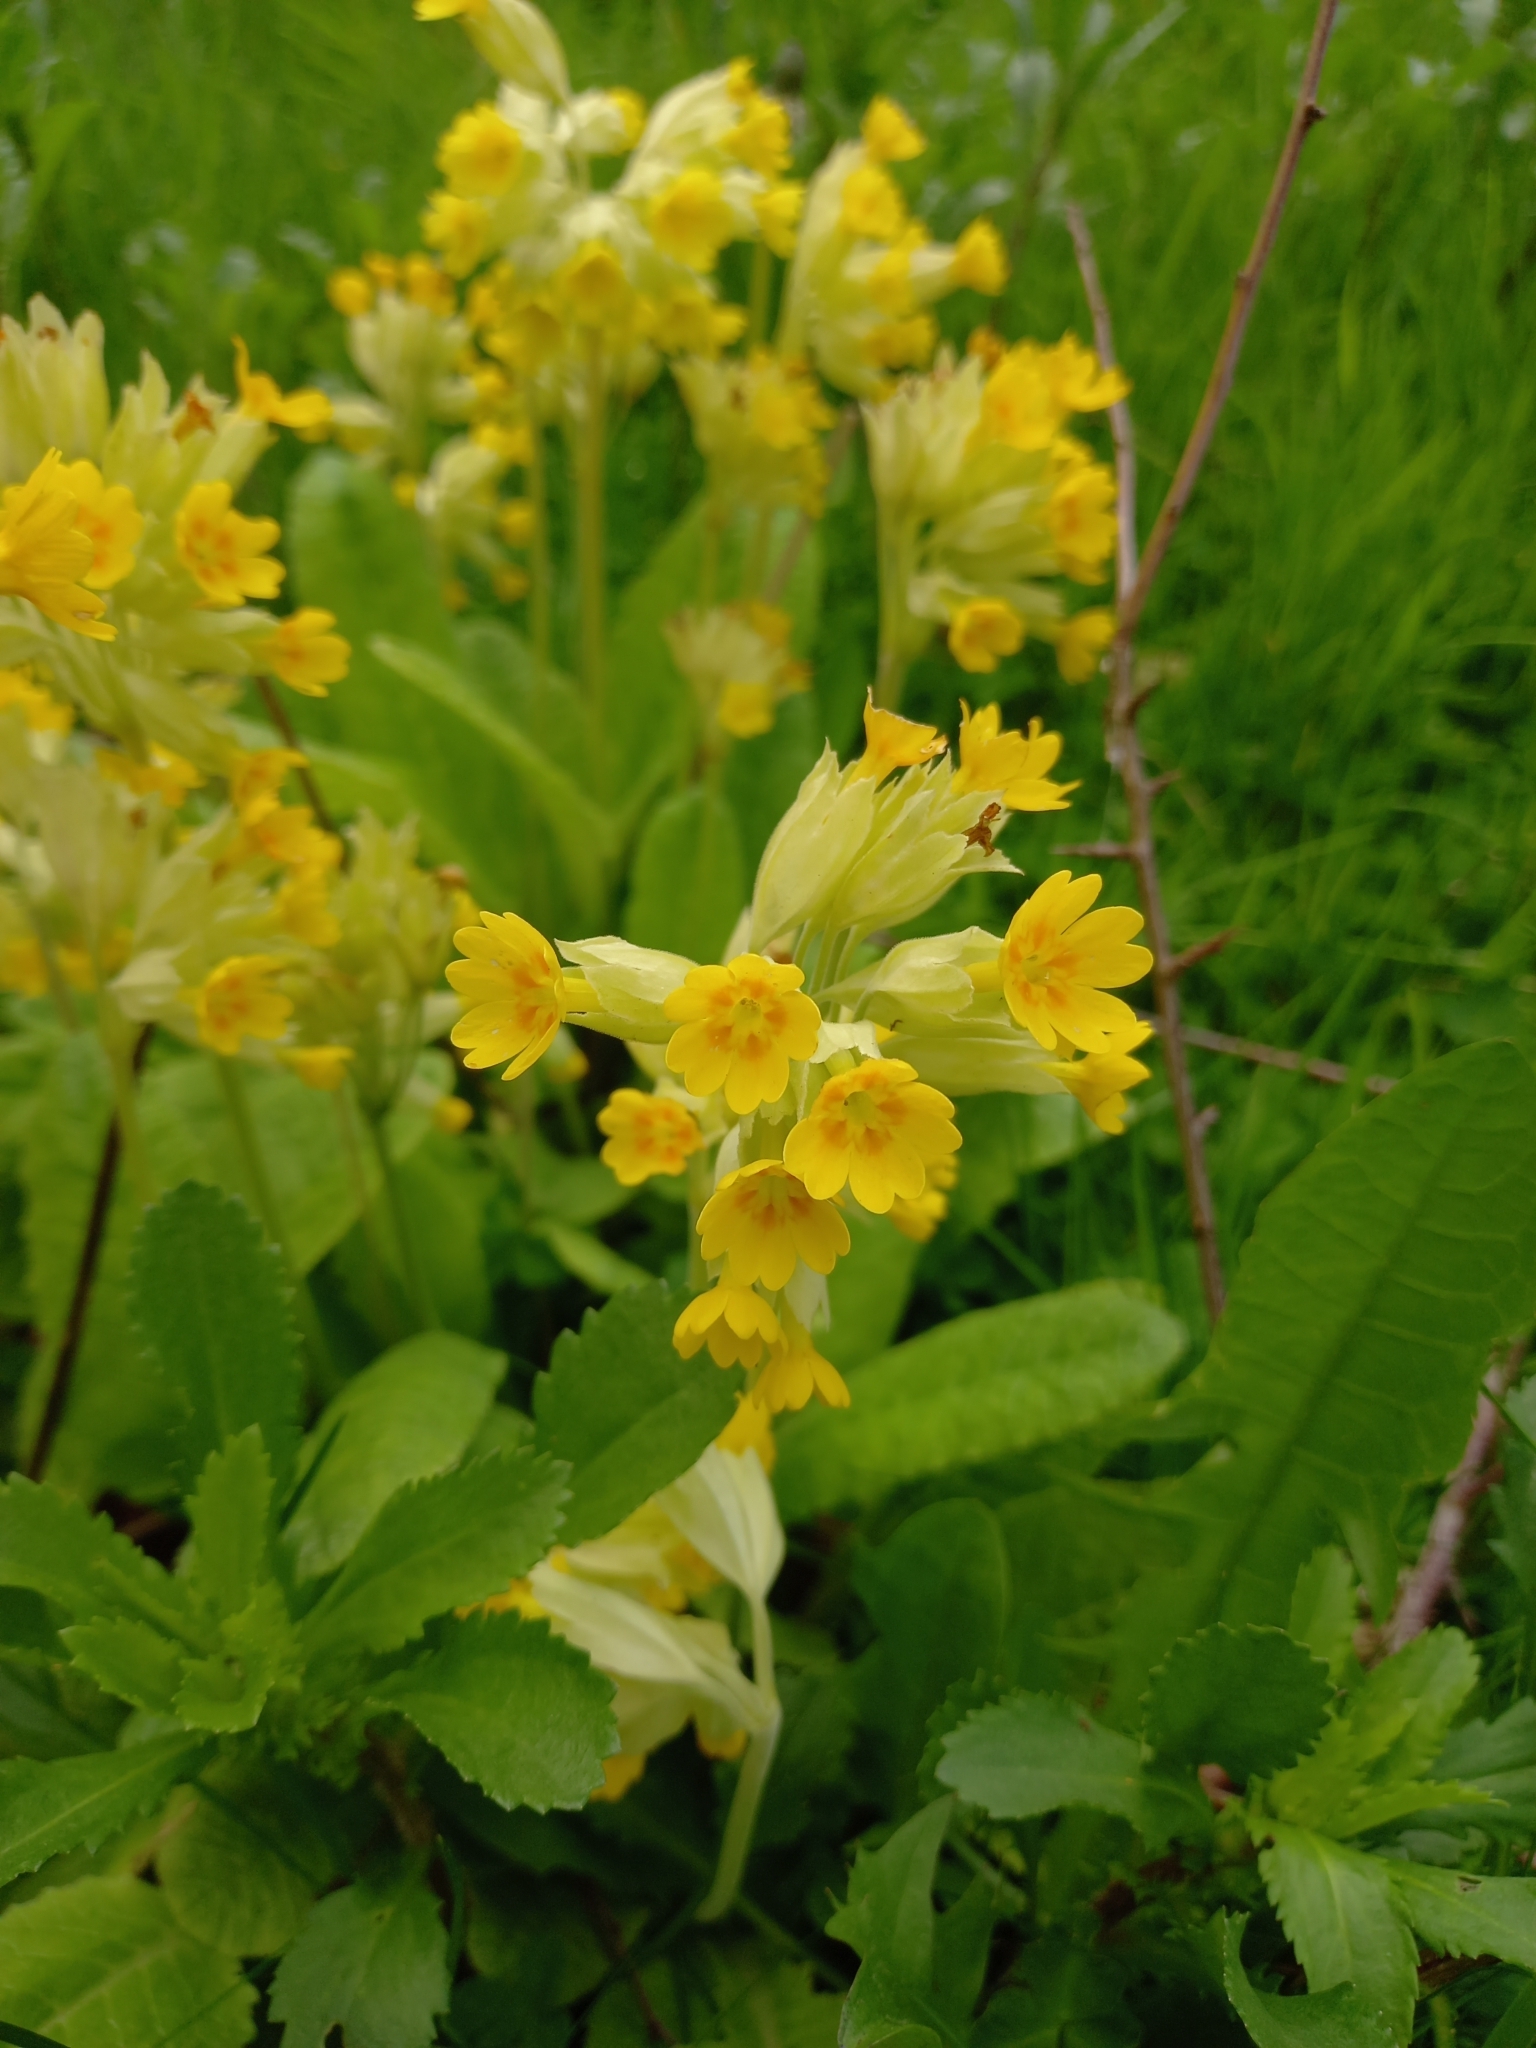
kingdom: Plantae
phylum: Tracheophyta
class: Magnoliopsida
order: Ericales
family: Primulaceae
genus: Primula
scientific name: Primula veris
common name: Cowslip
